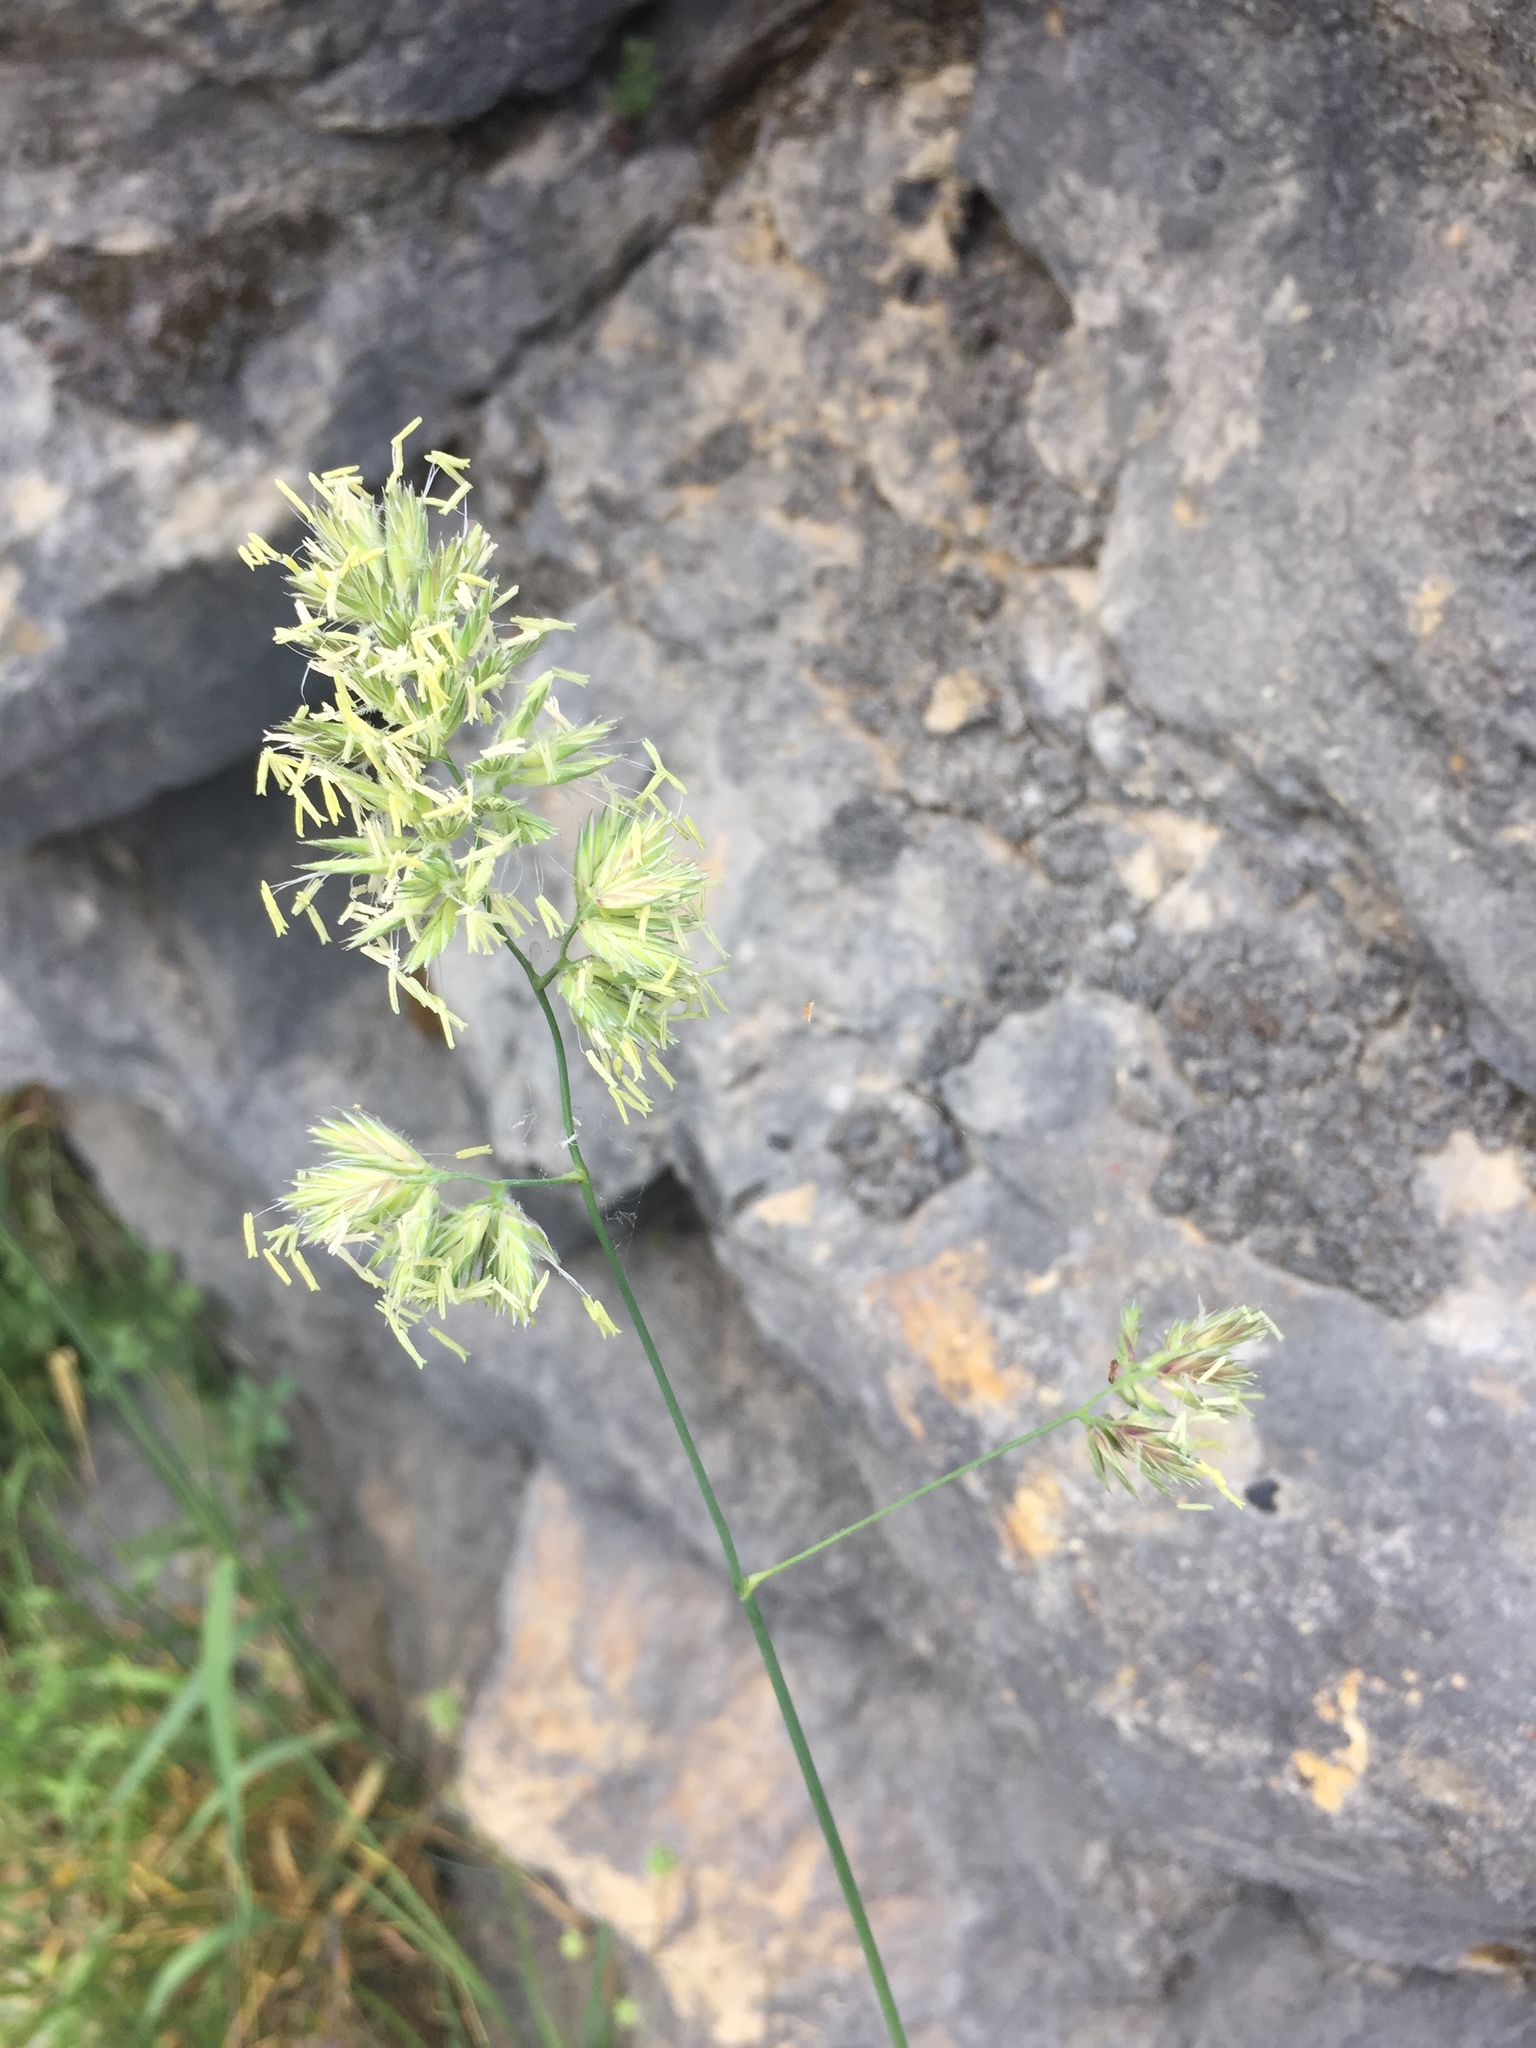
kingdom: Plantae
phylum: Tracheophyta
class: Liliopsida
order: Poales
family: Poaceae
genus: Dactylis
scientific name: Dactylis glomerata
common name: Orchardgrass
